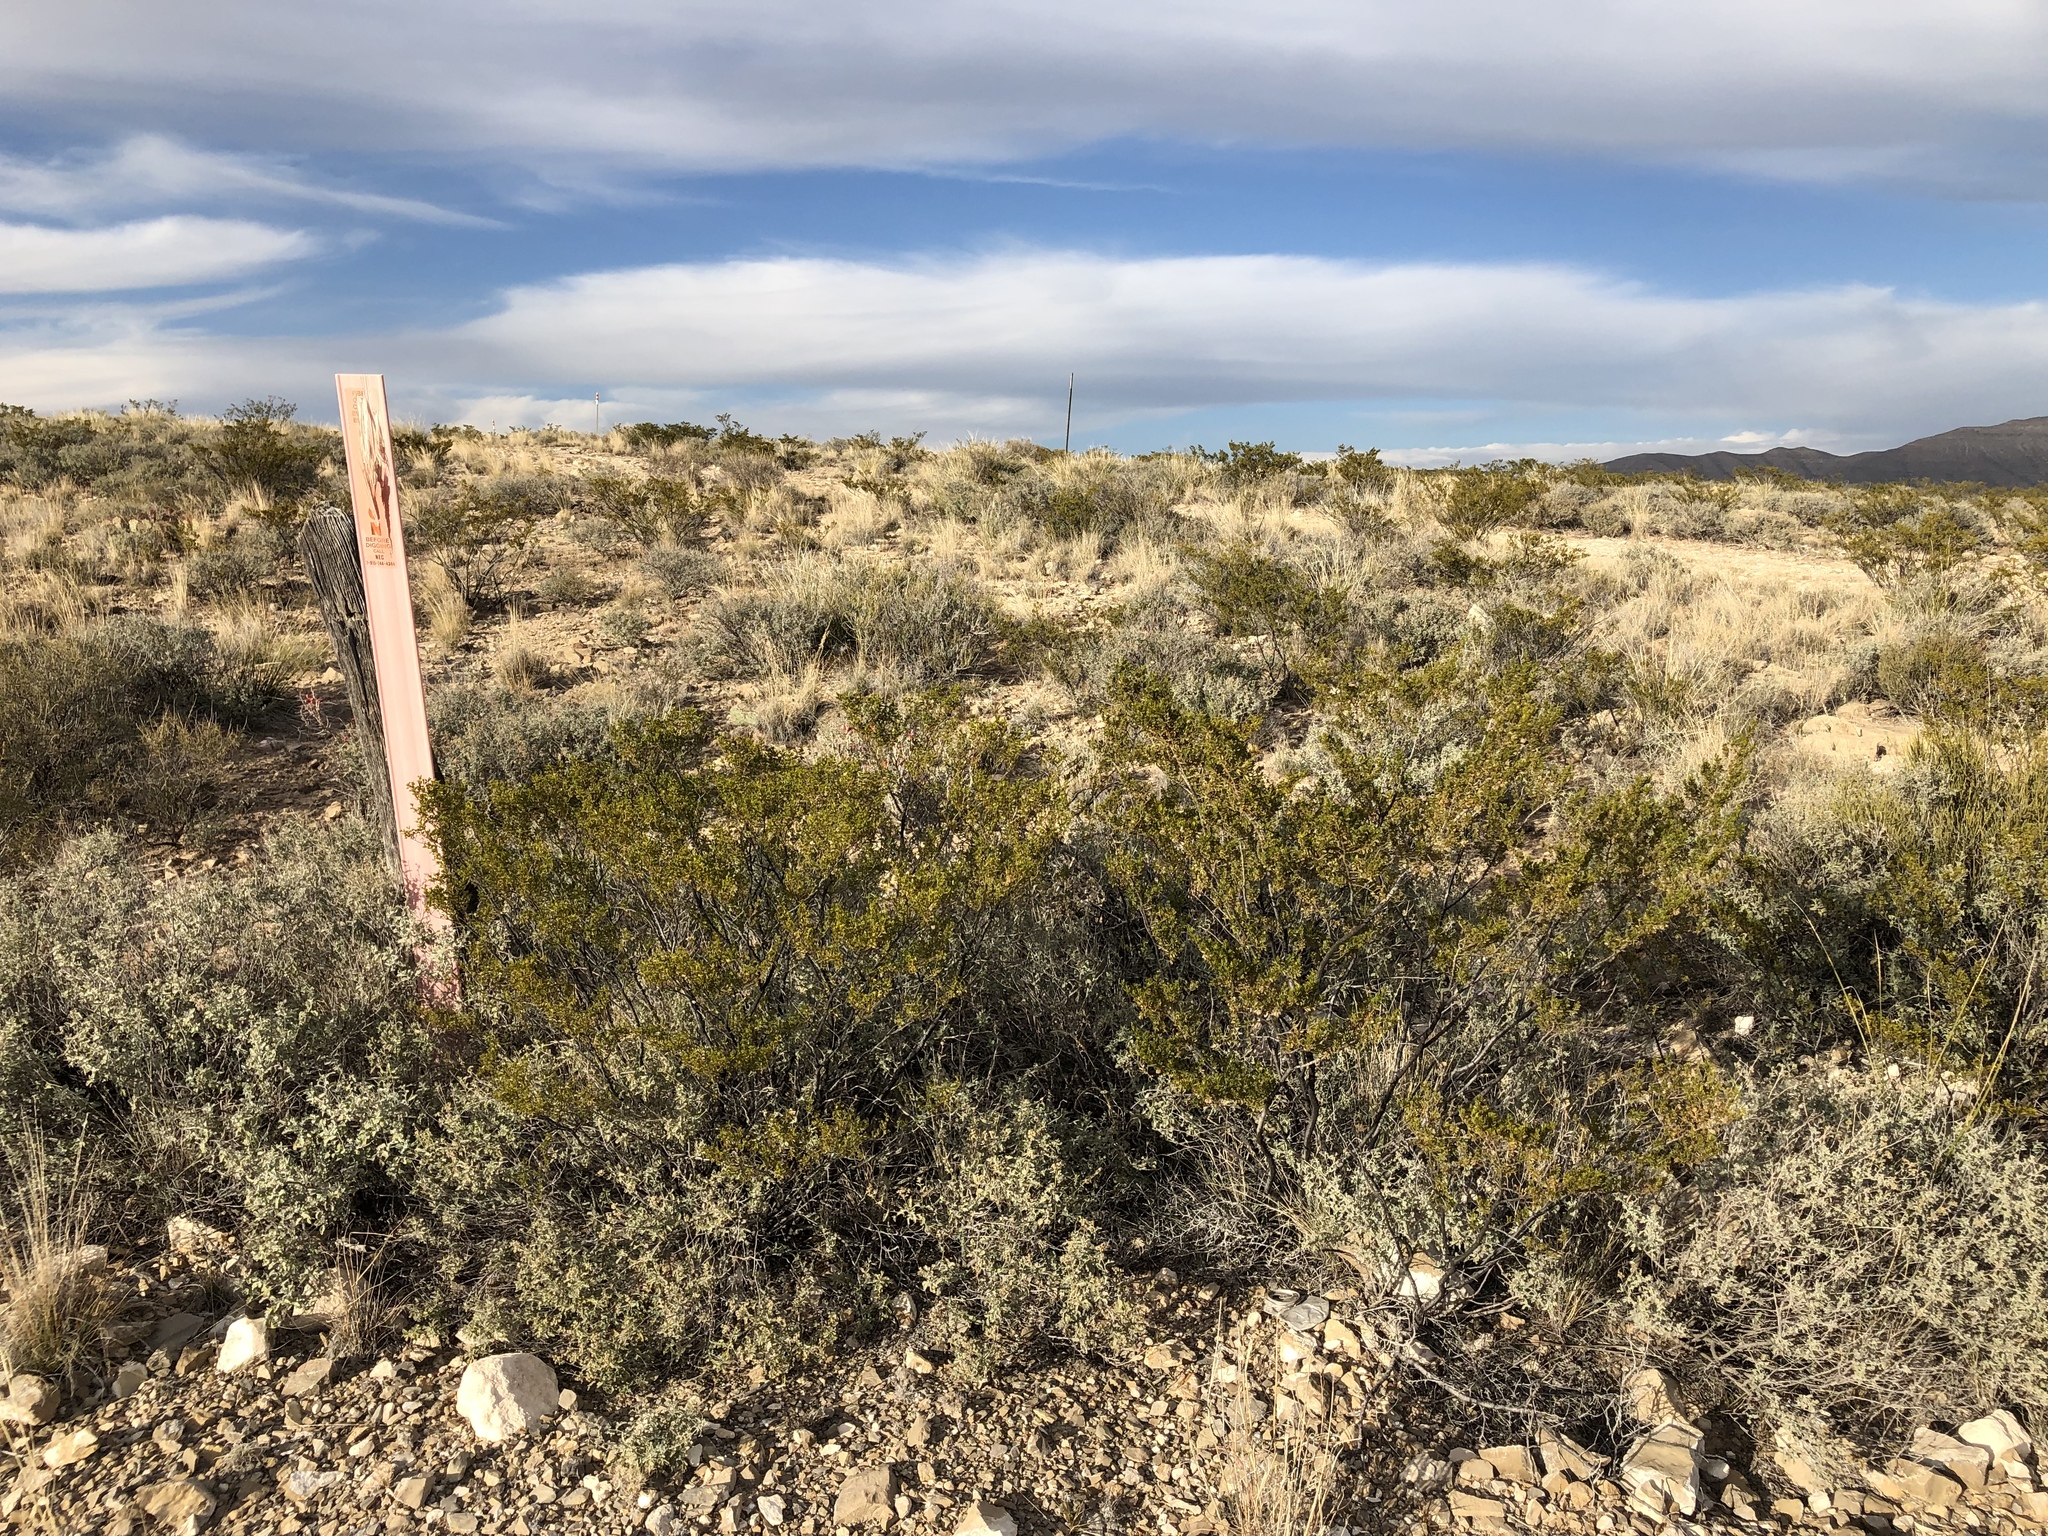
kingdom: Plantae
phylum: Tracheophyta
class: Magnoliopsida
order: Zygophyllales
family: Zygophyllaceae
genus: Larrea
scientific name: Larrea tridentata
